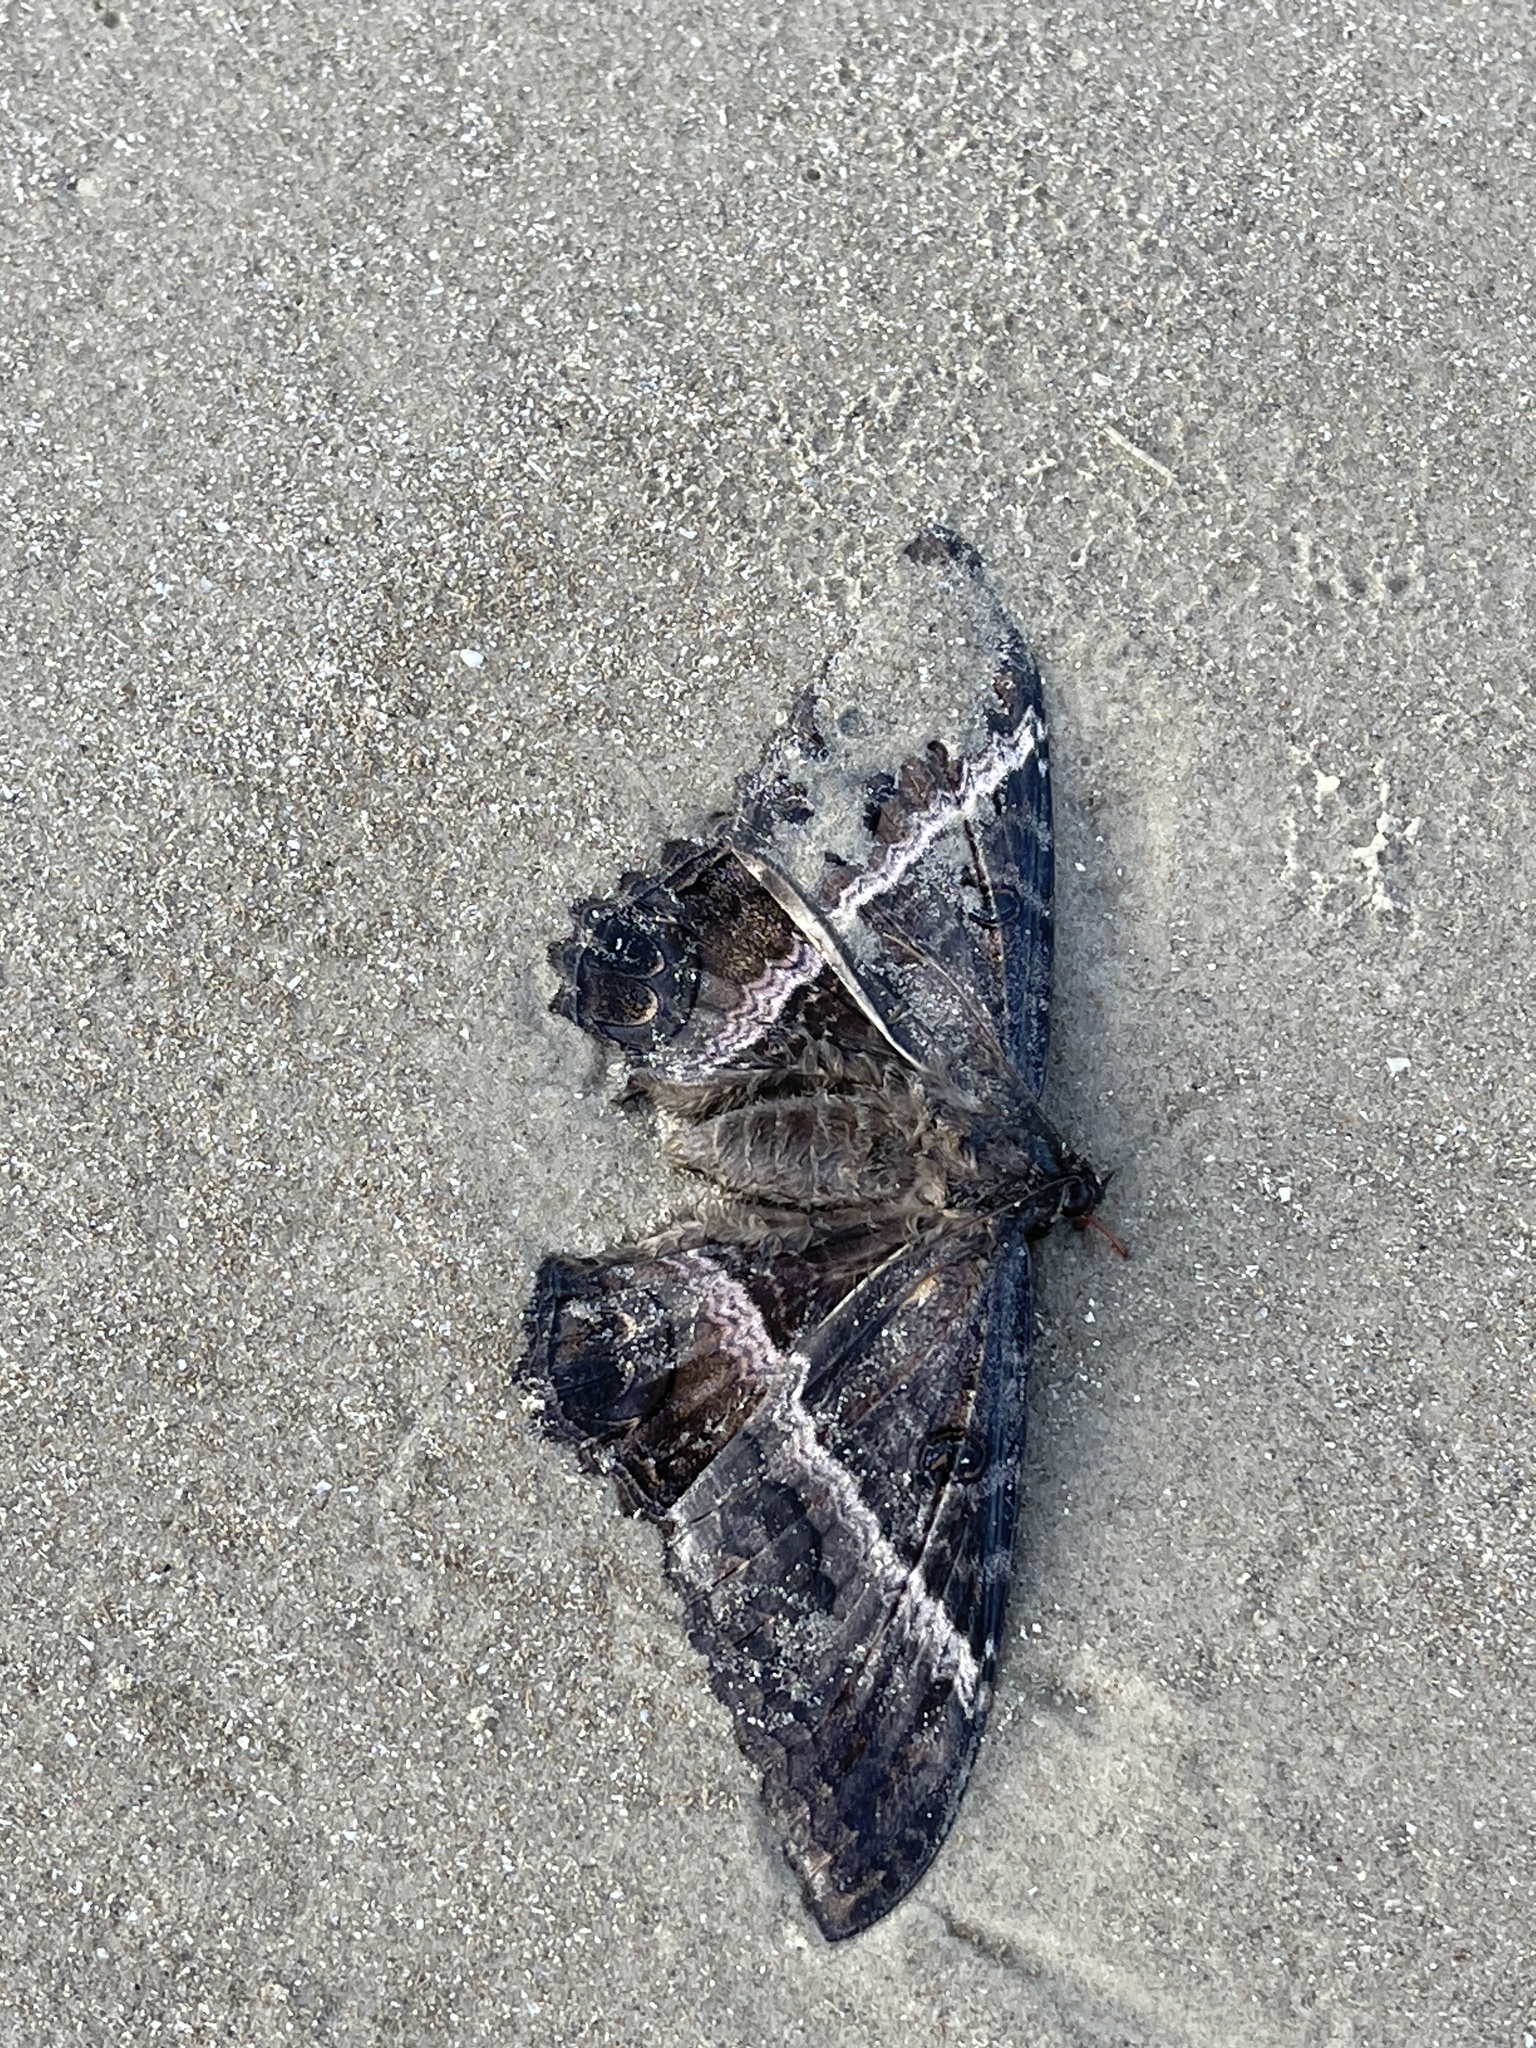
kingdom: Animalia
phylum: Arthropoda
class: Insecta
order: Lepidoptera
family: Erebidae
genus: Ascalapha
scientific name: Ascalapha odorata
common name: Black witch
